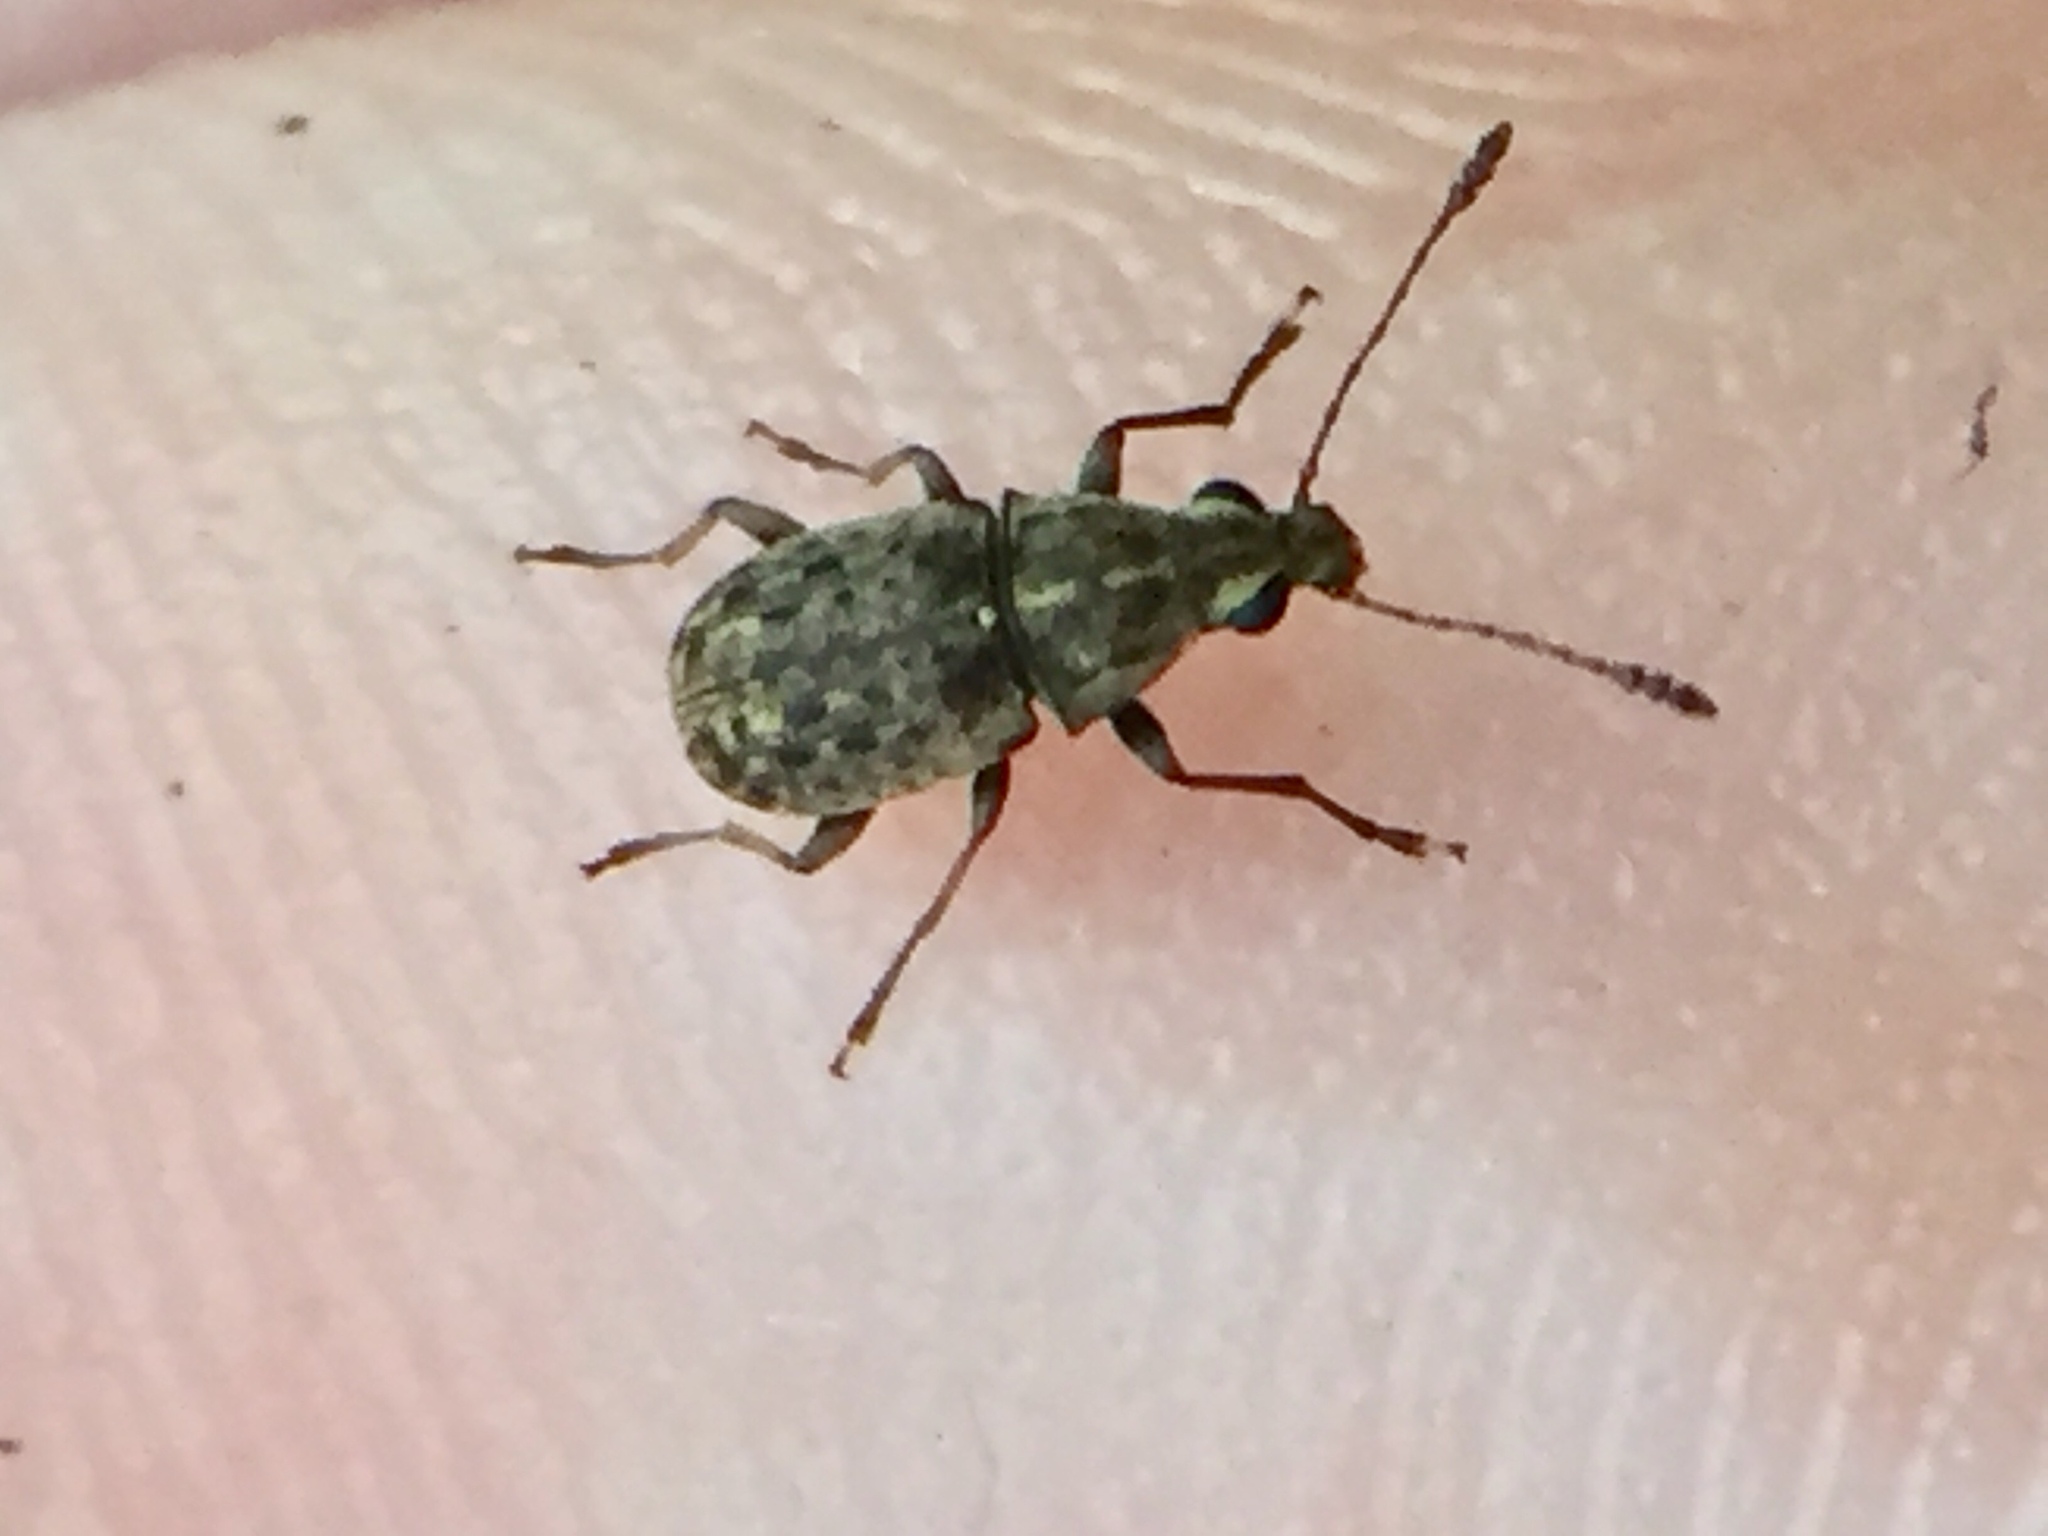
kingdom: Animalia
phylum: Arthropoda
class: Insecta
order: Coleoptera
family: Anthribidae
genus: Cacephatus
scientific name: Cacephatus huttoni
